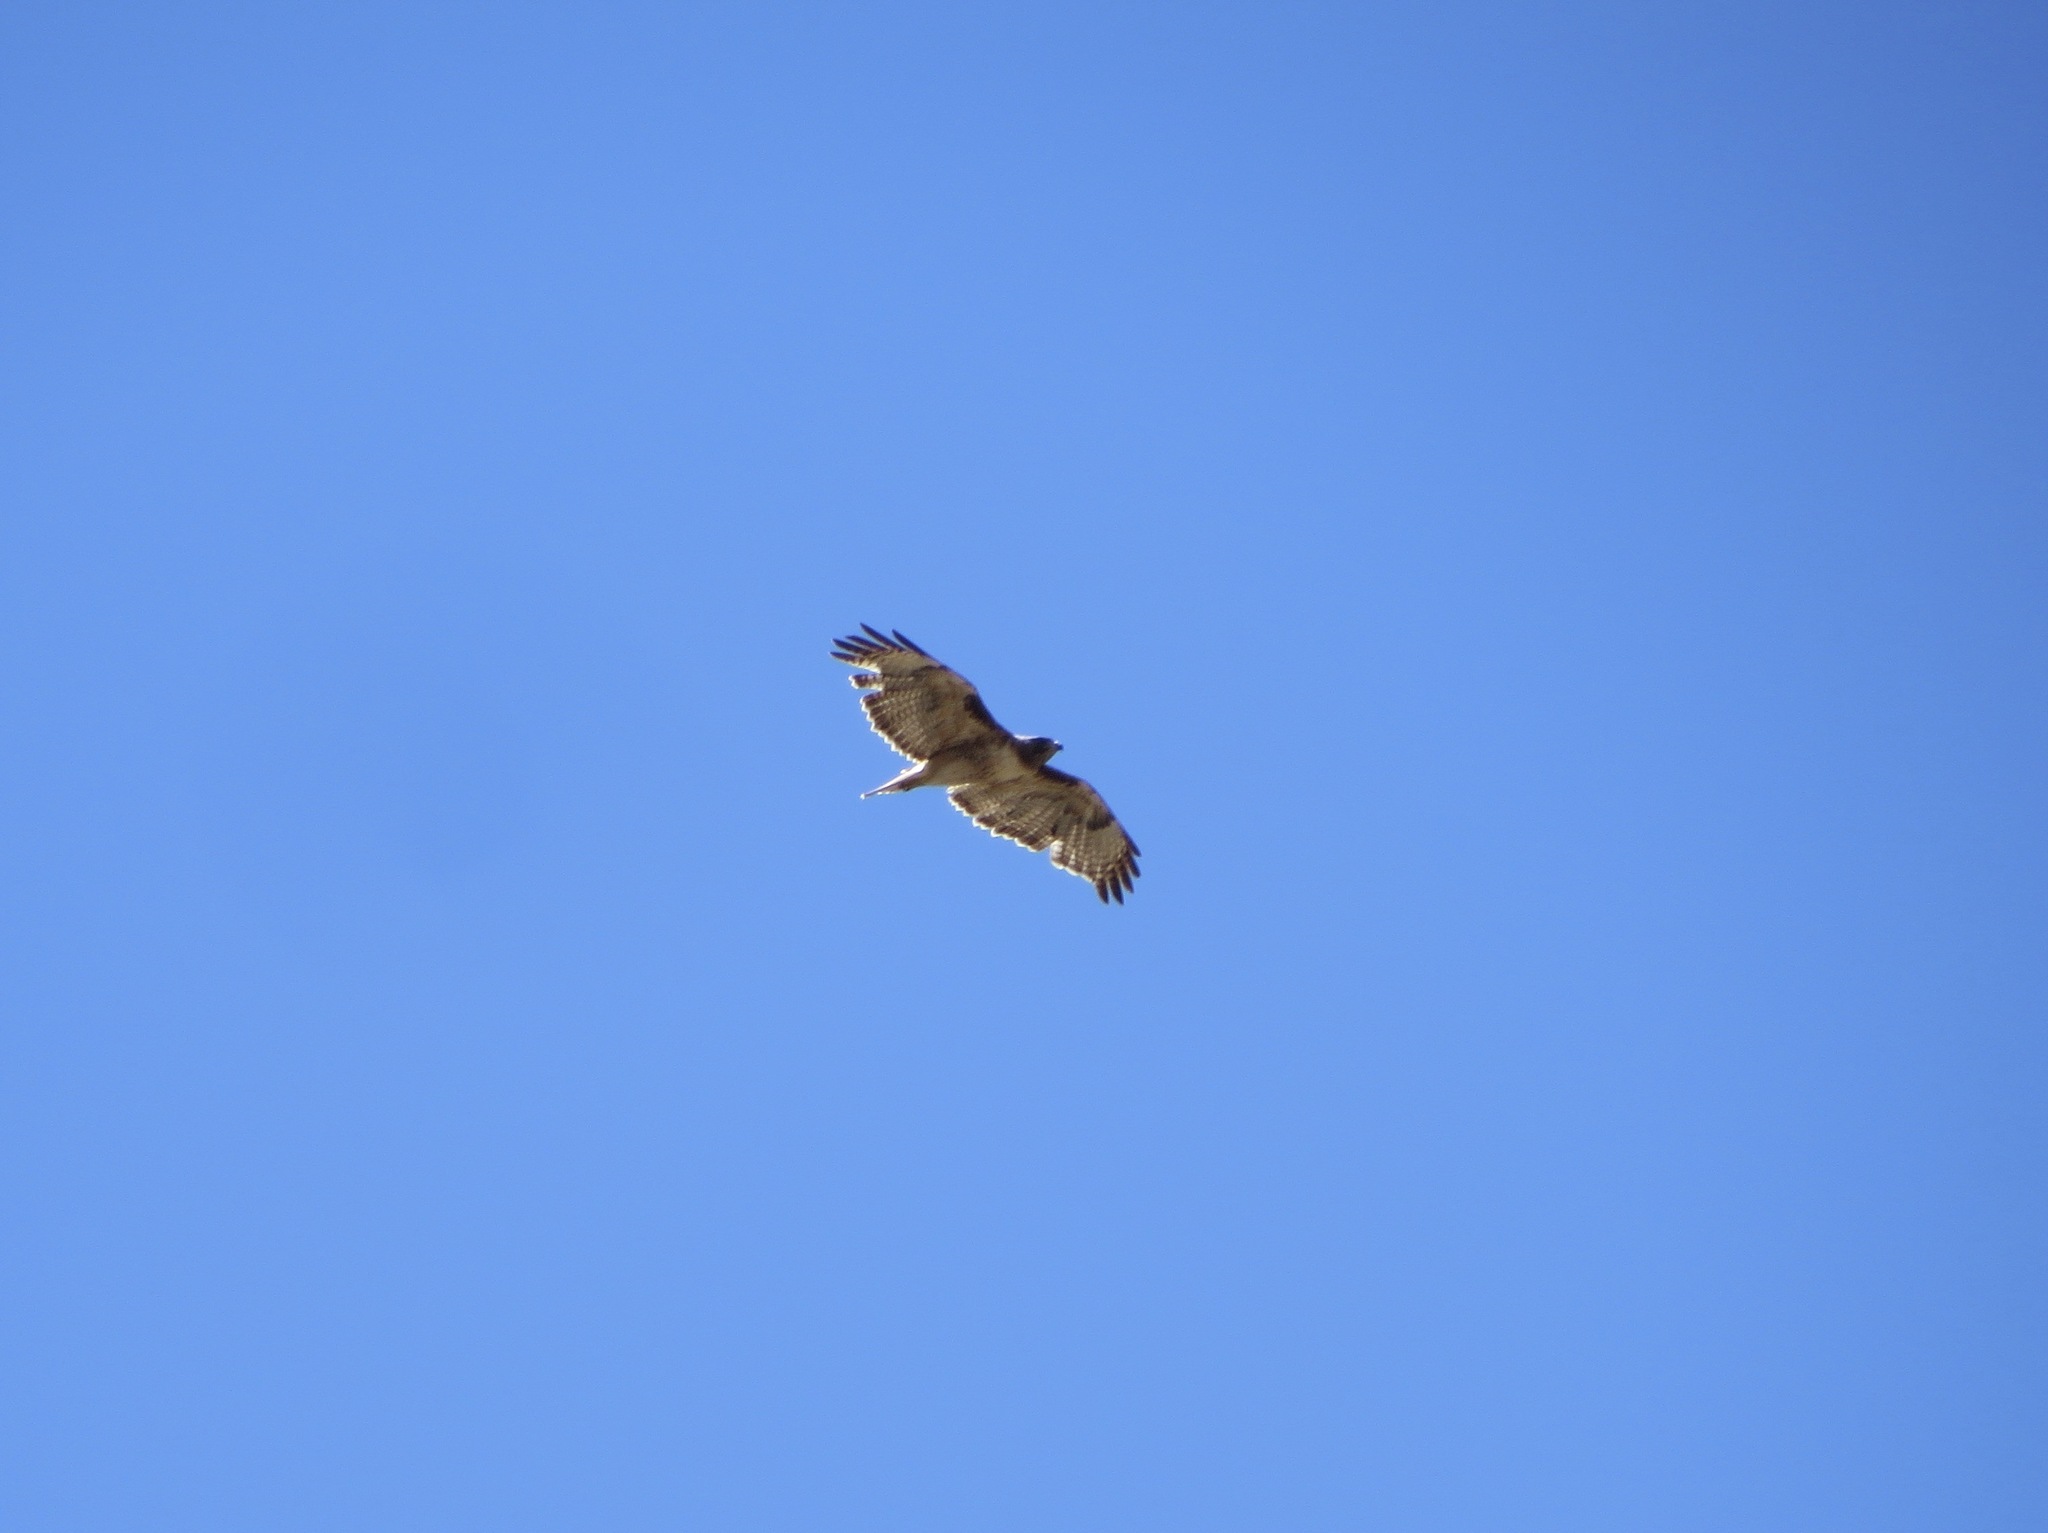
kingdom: Animalia
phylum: Chordata
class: Aves
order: Accipitriformes
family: Accipitridae
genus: Buteo
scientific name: Buteo jamaicensis
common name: Red-tailed hawk
